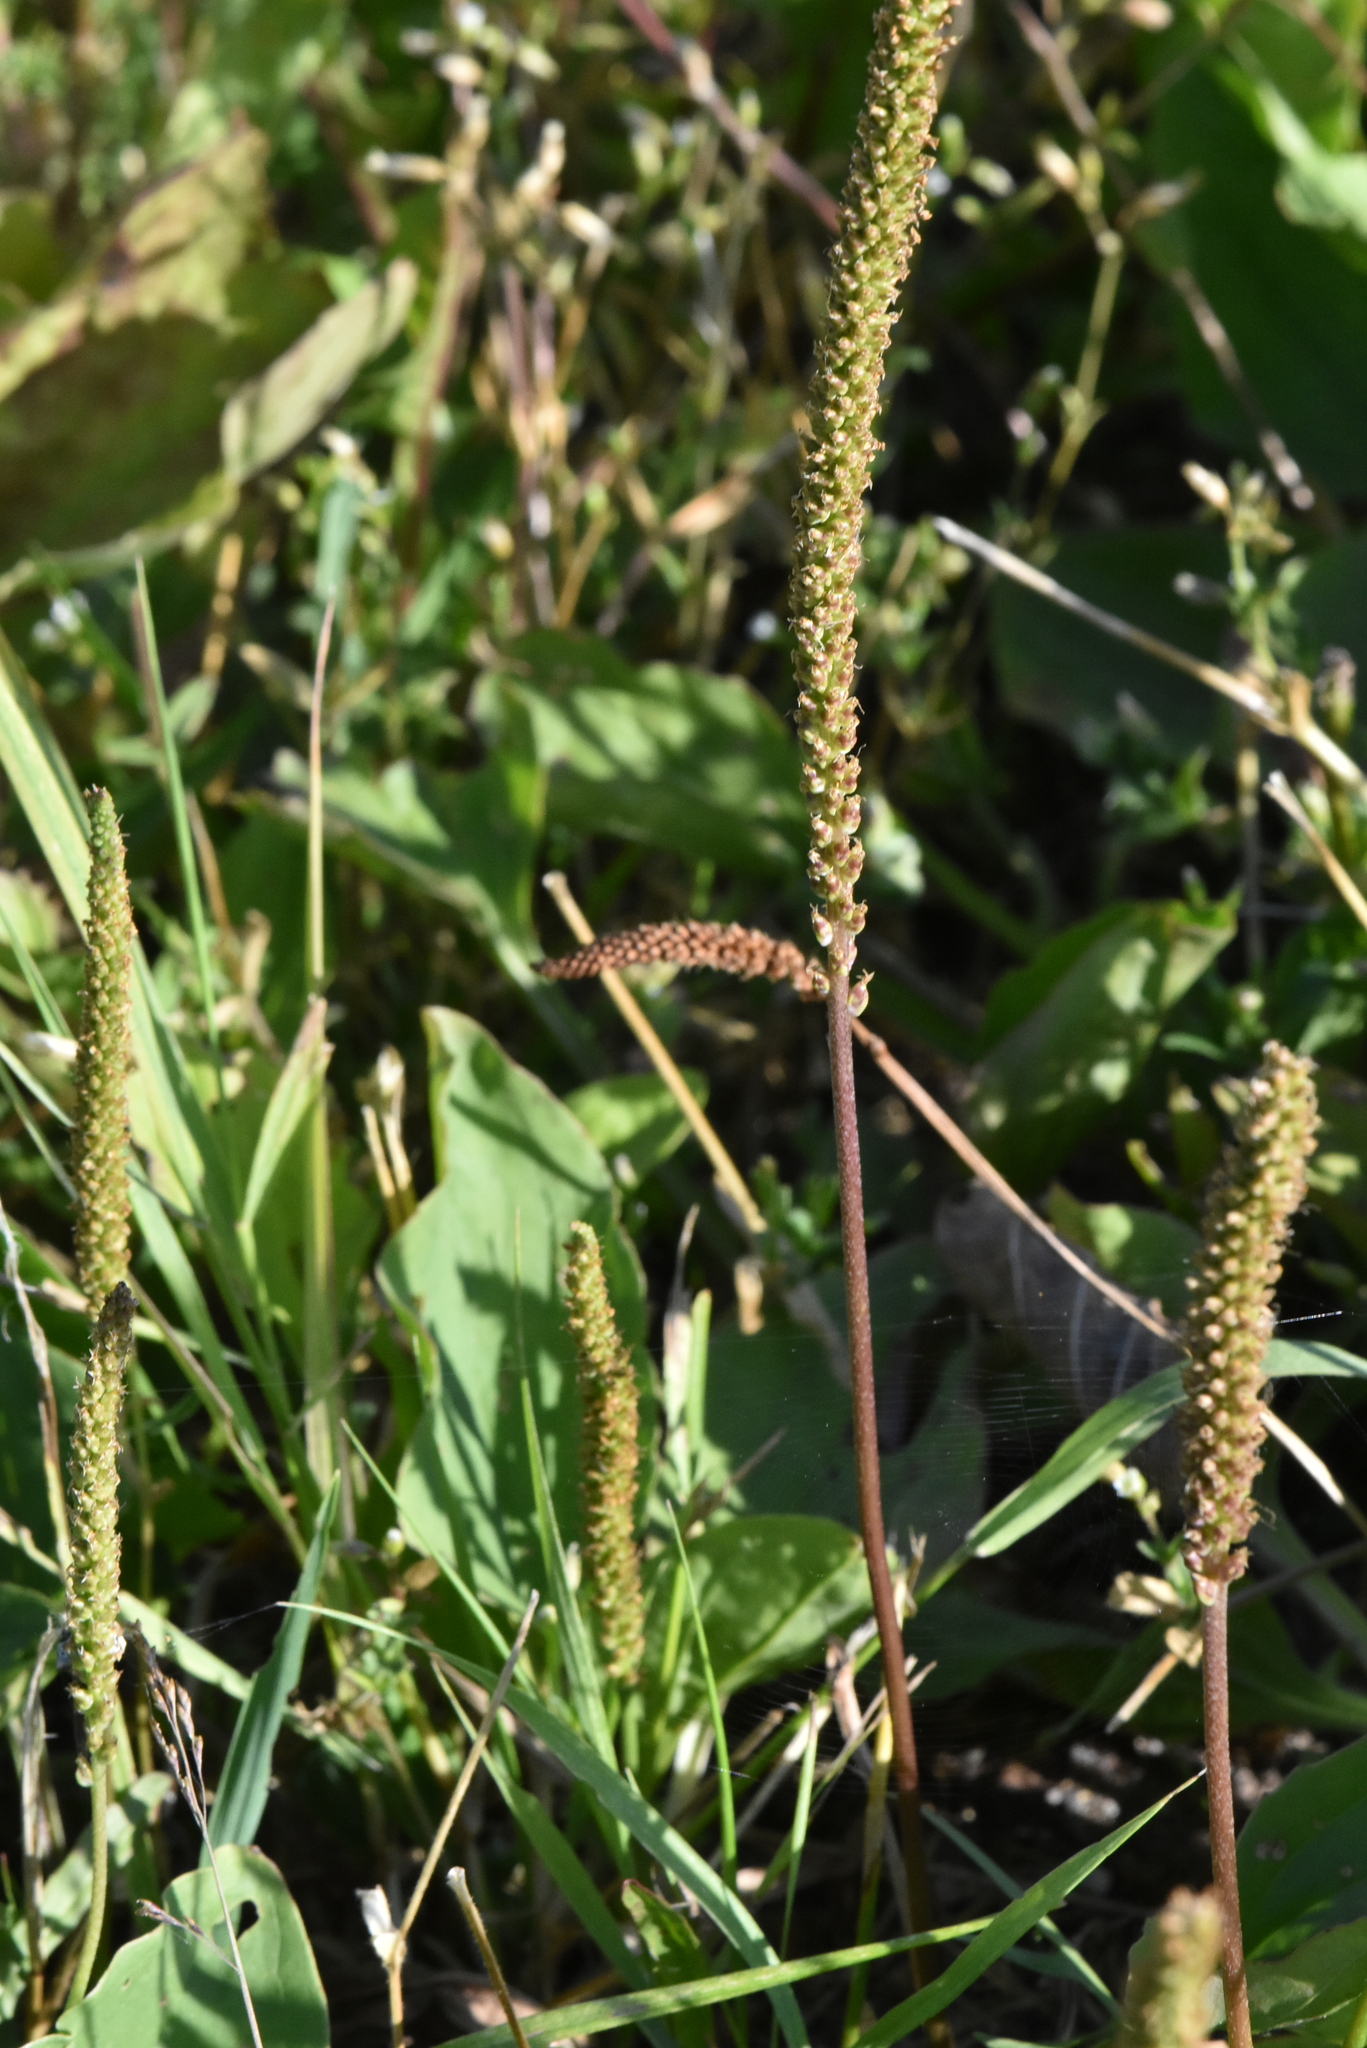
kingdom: Plantae
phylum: Tracheophyta
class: Magnoliopsida
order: Lamiales
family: Plantaginaceae
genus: Plantago
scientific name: Plantago major
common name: Common plantain
